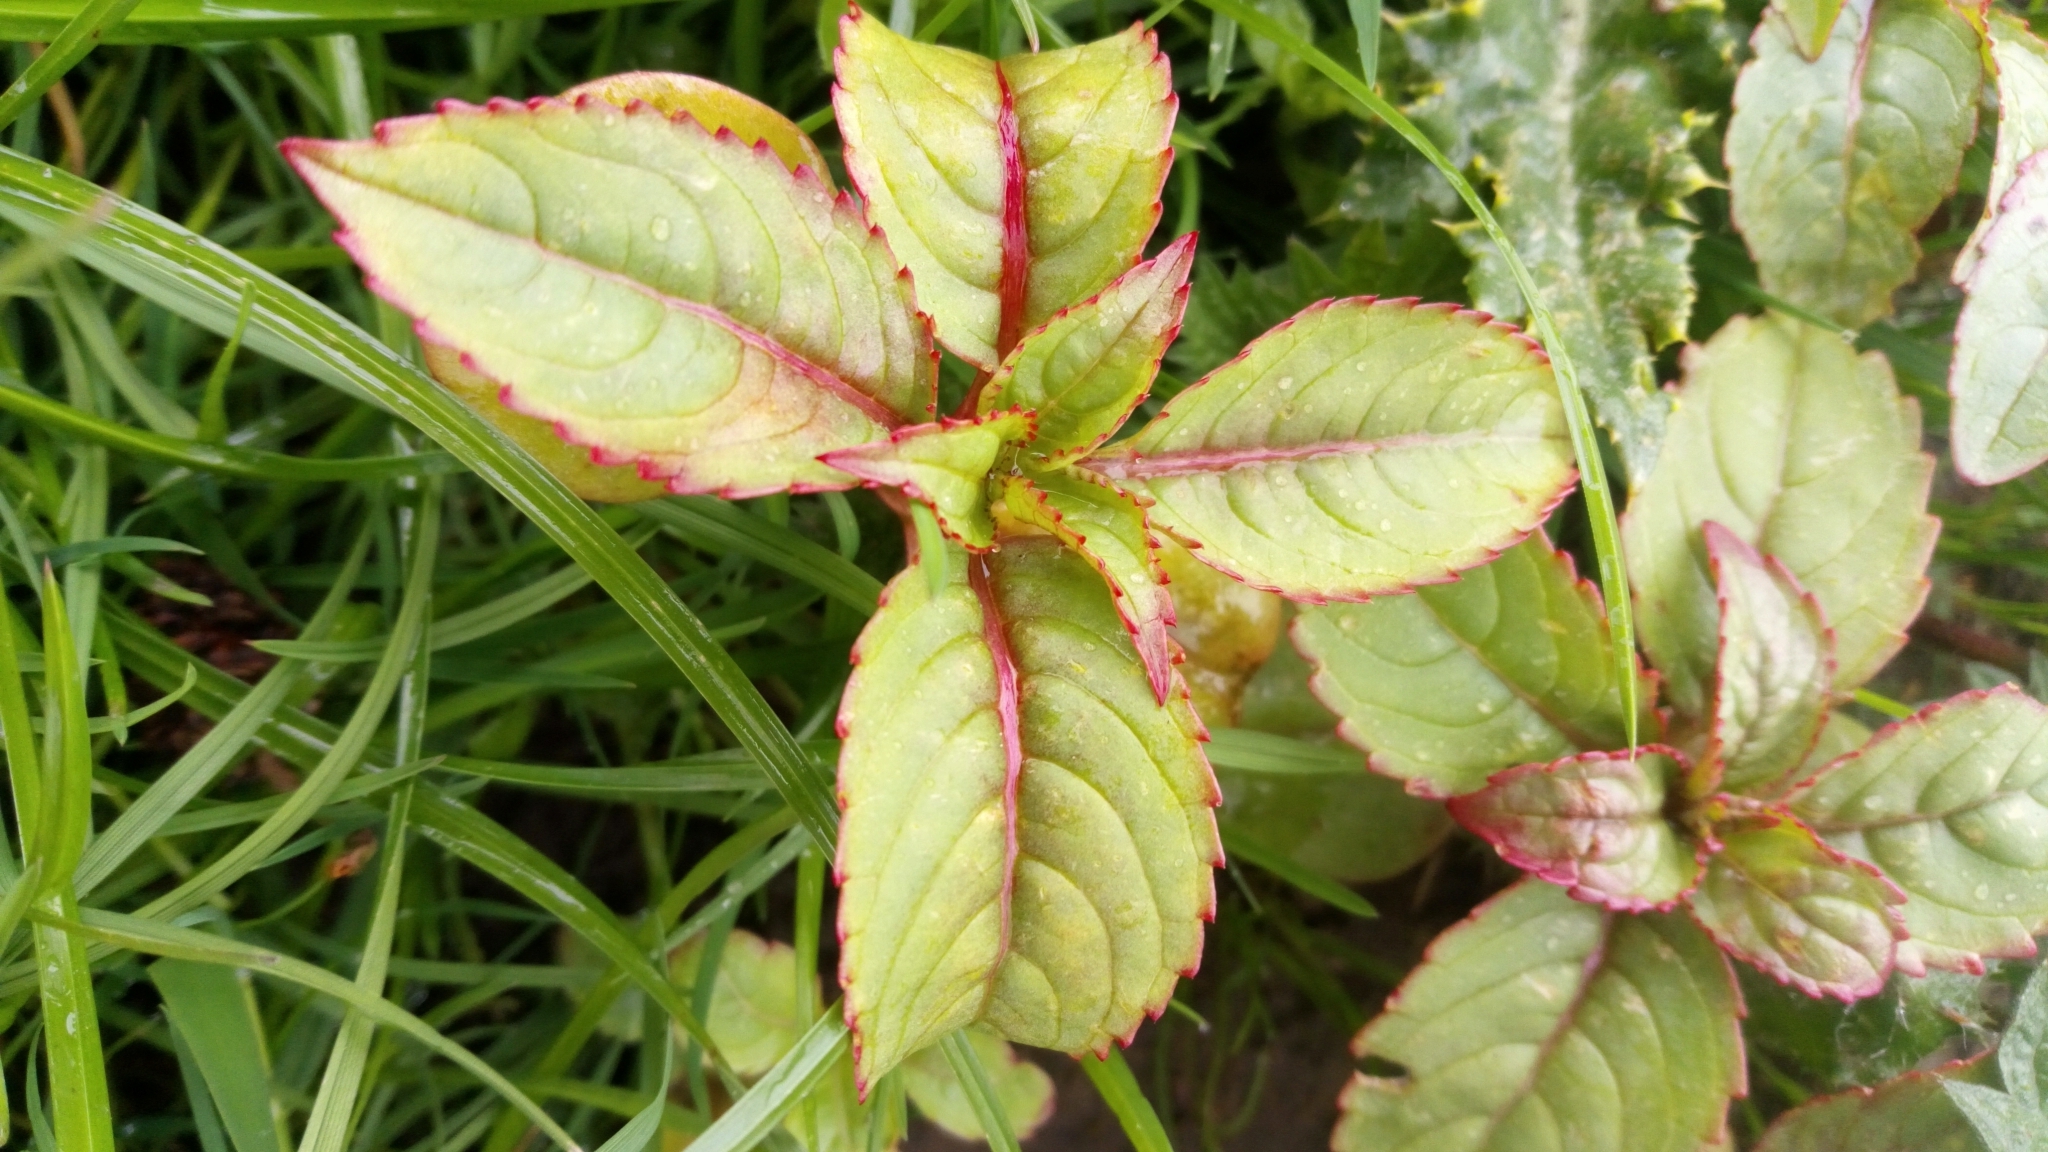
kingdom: Plantae
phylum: Tracheophyta
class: Magnoliopsida
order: Ericales
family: Balsaminaceae
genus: Impatiens
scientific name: Impatiens glandulifera
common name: Himalayan balsam
